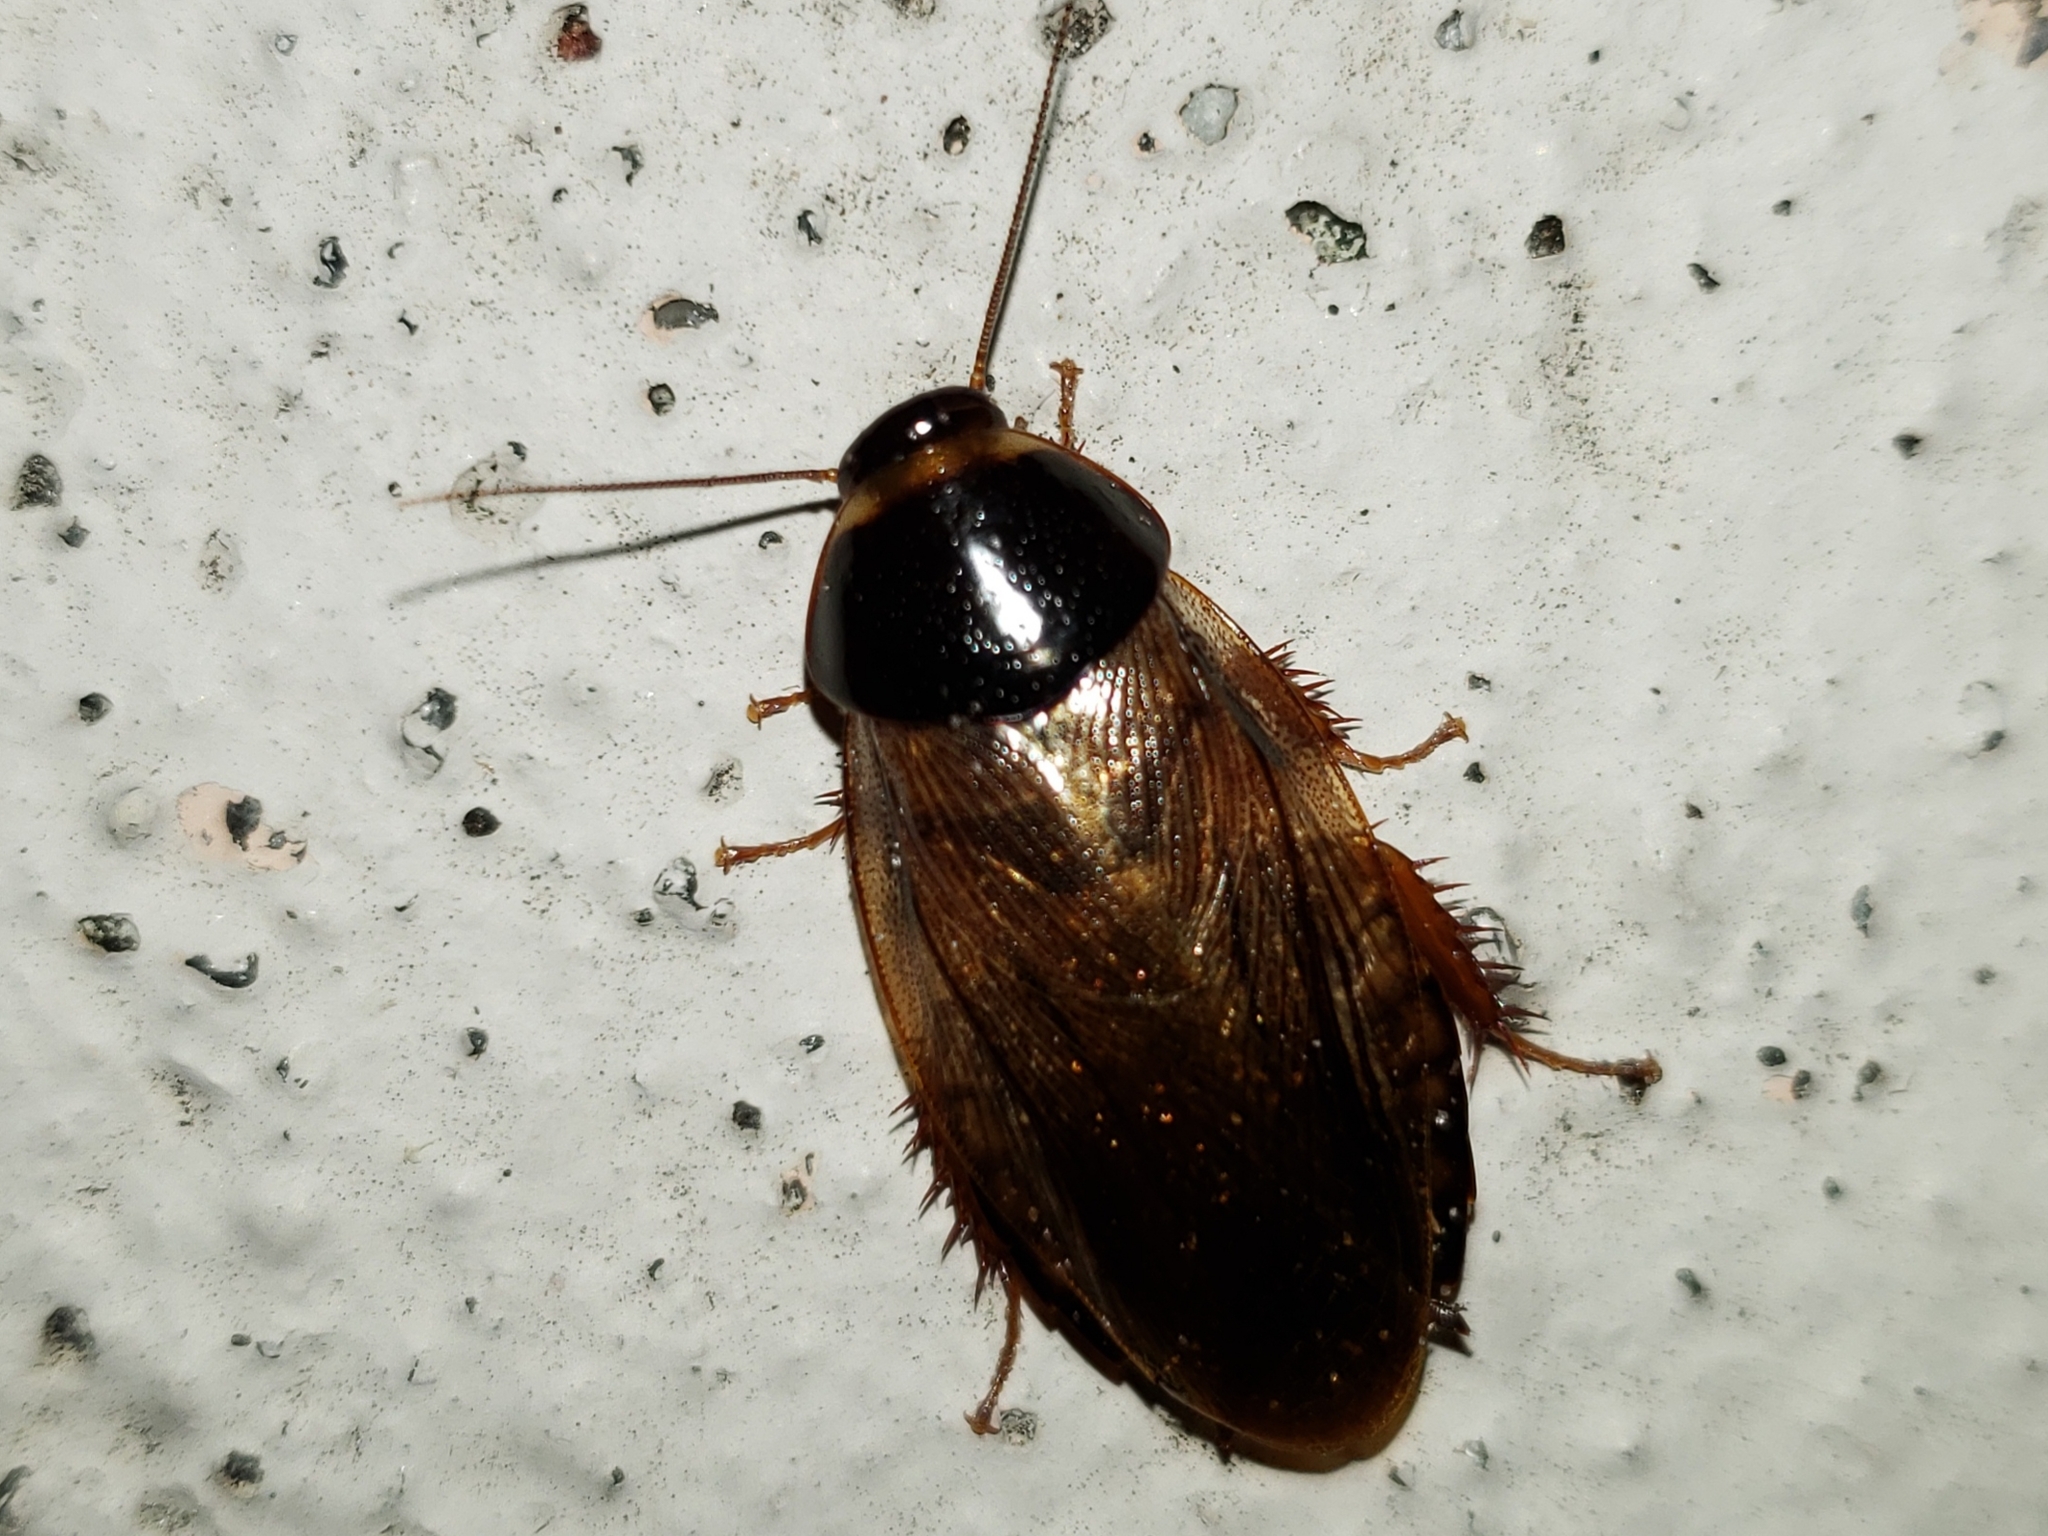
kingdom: Animalia
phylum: Arthropoda
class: Insecta
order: Blattodea
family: Blaberidae
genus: Pycnoscelus
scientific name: Pycnoscelus surinamensis
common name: Surinam cockroach
